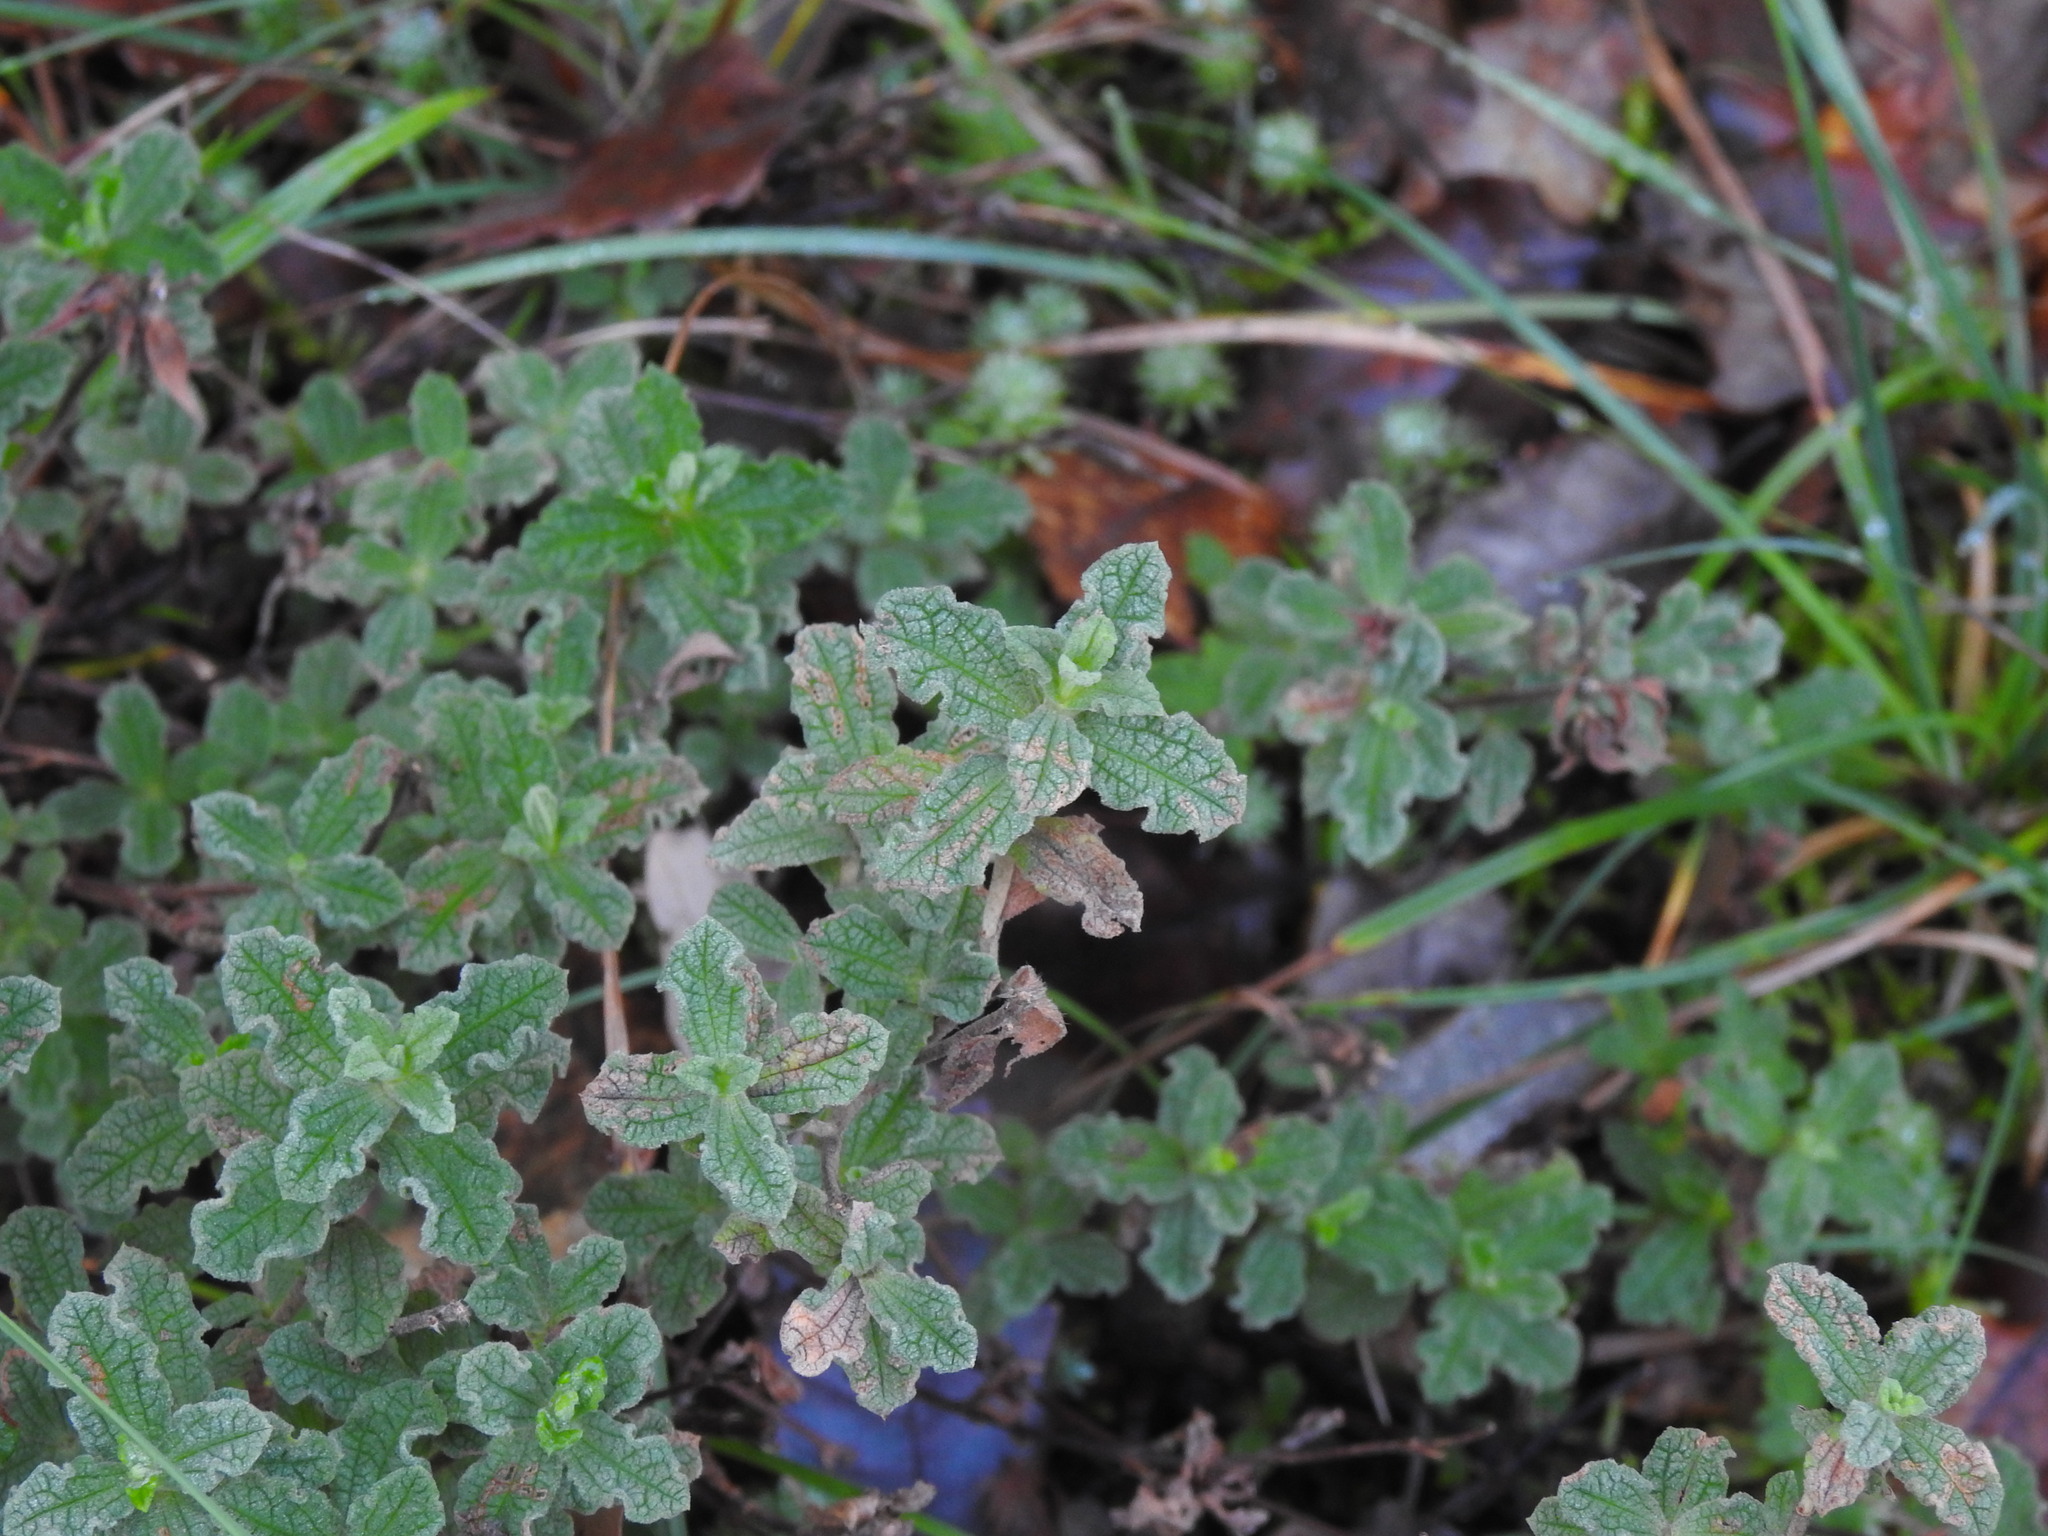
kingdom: Plantae
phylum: Tracheophyta
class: Magnoliopsida
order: Malvales
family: Cistaceae
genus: Cistus
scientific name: Cistus crispus
